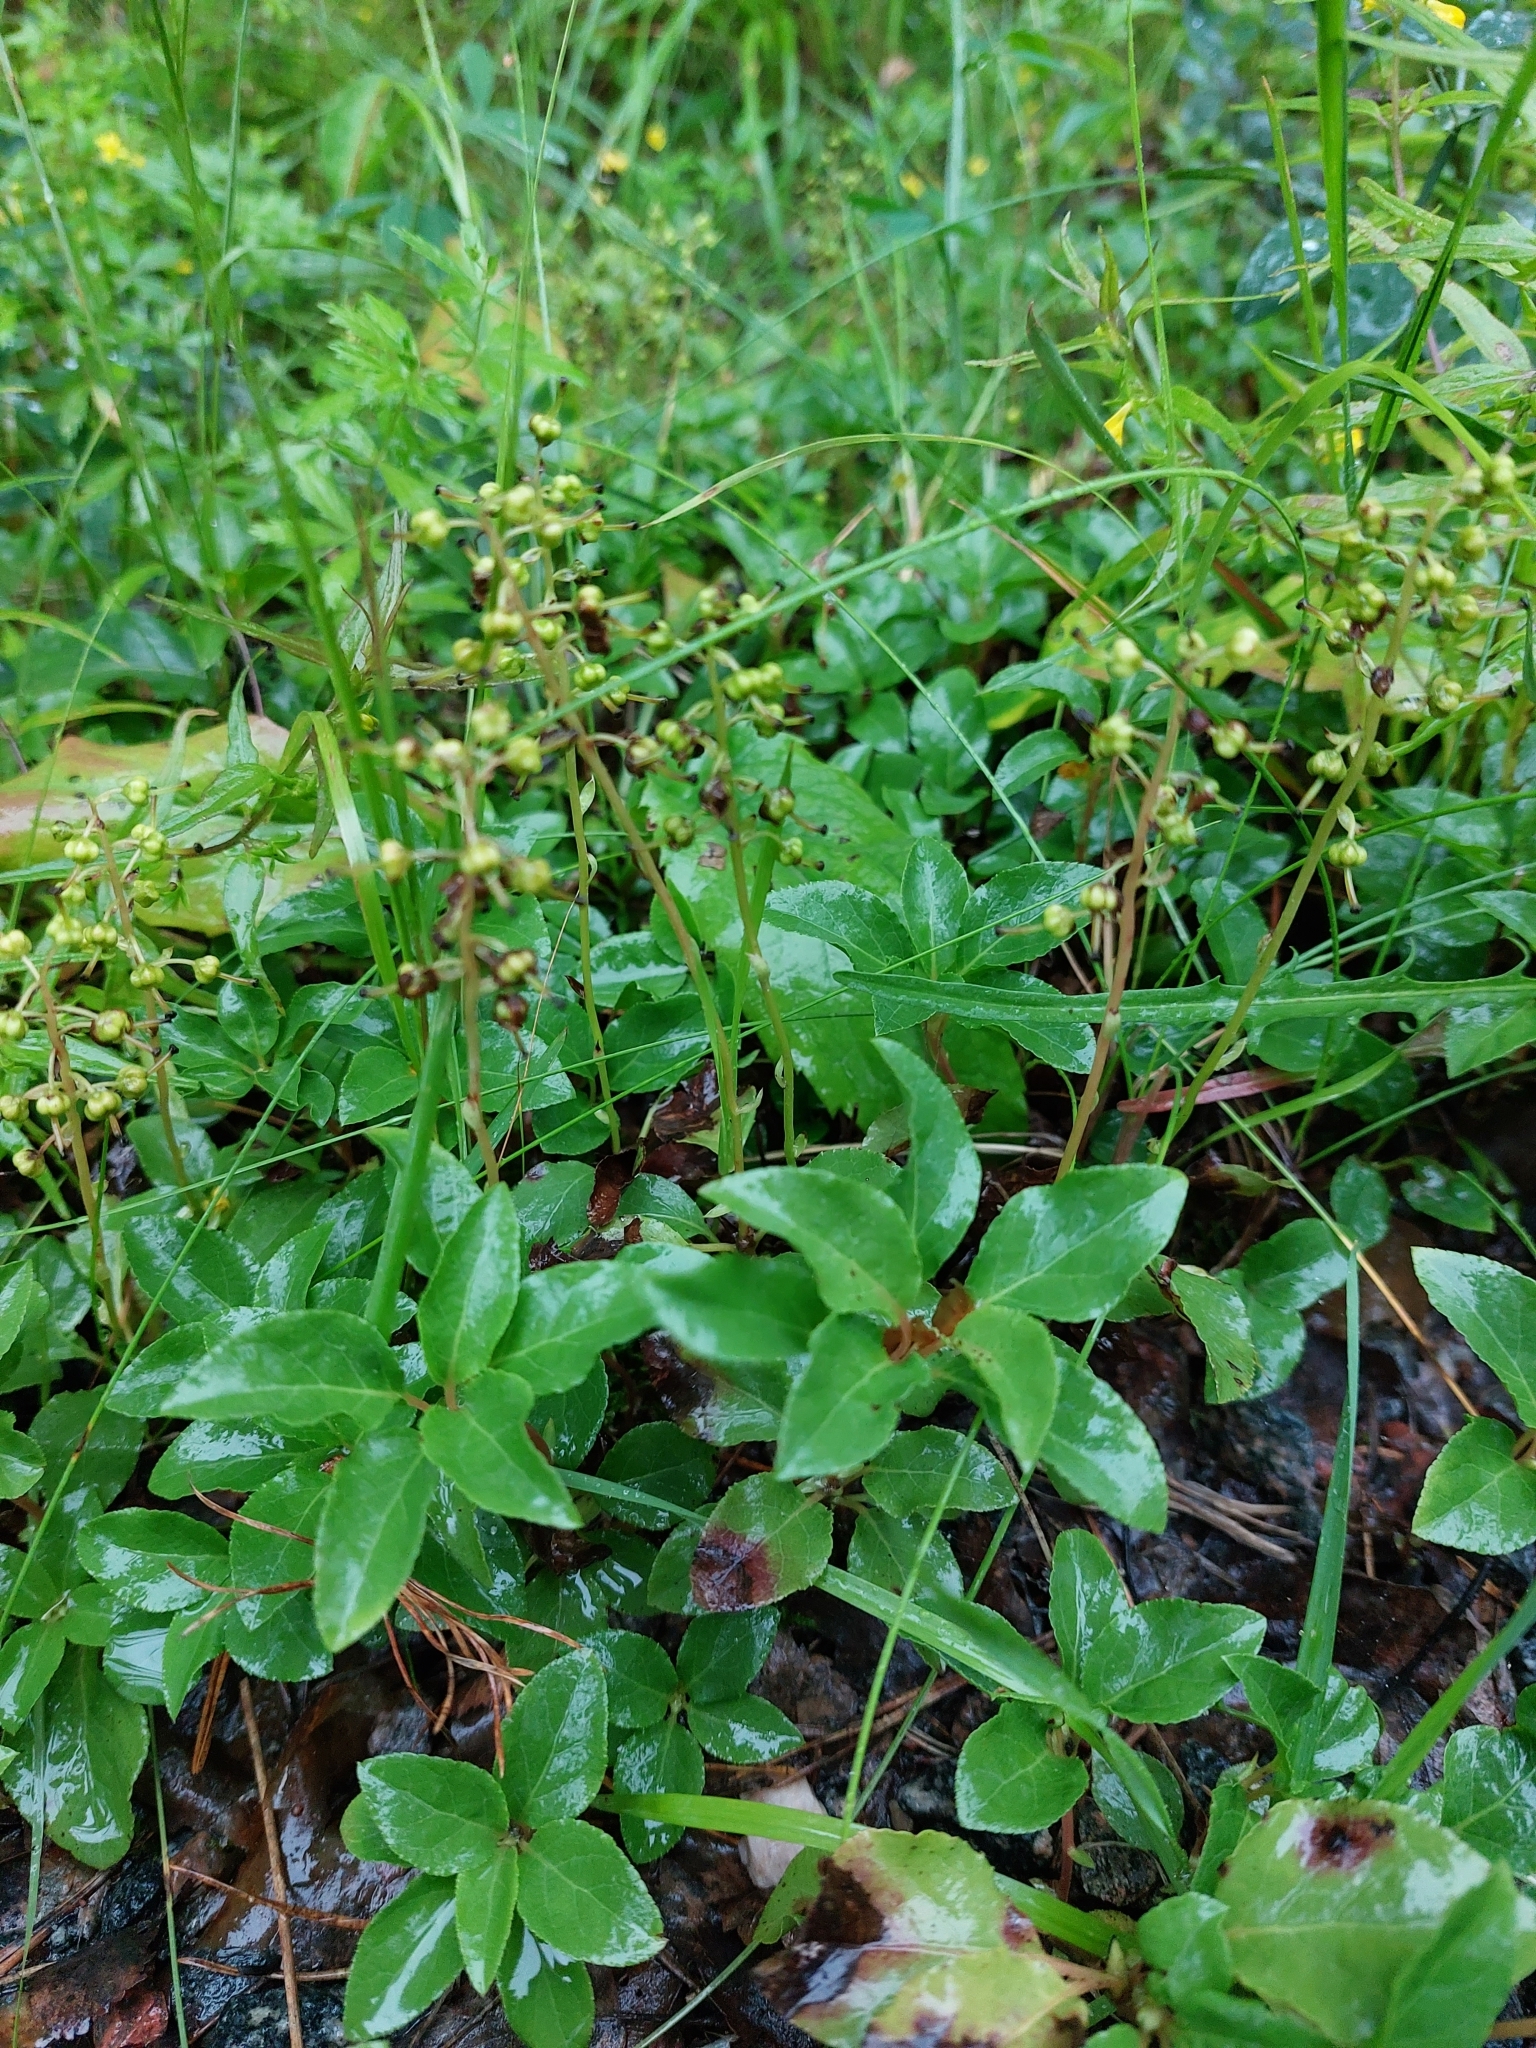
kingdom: Plantae
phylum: Tracheophyta
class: Magnoliopsida
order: Ericales
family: Ericaceae
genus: Orthilia
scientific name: Orthilia secunda
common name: One-sided orthilia
